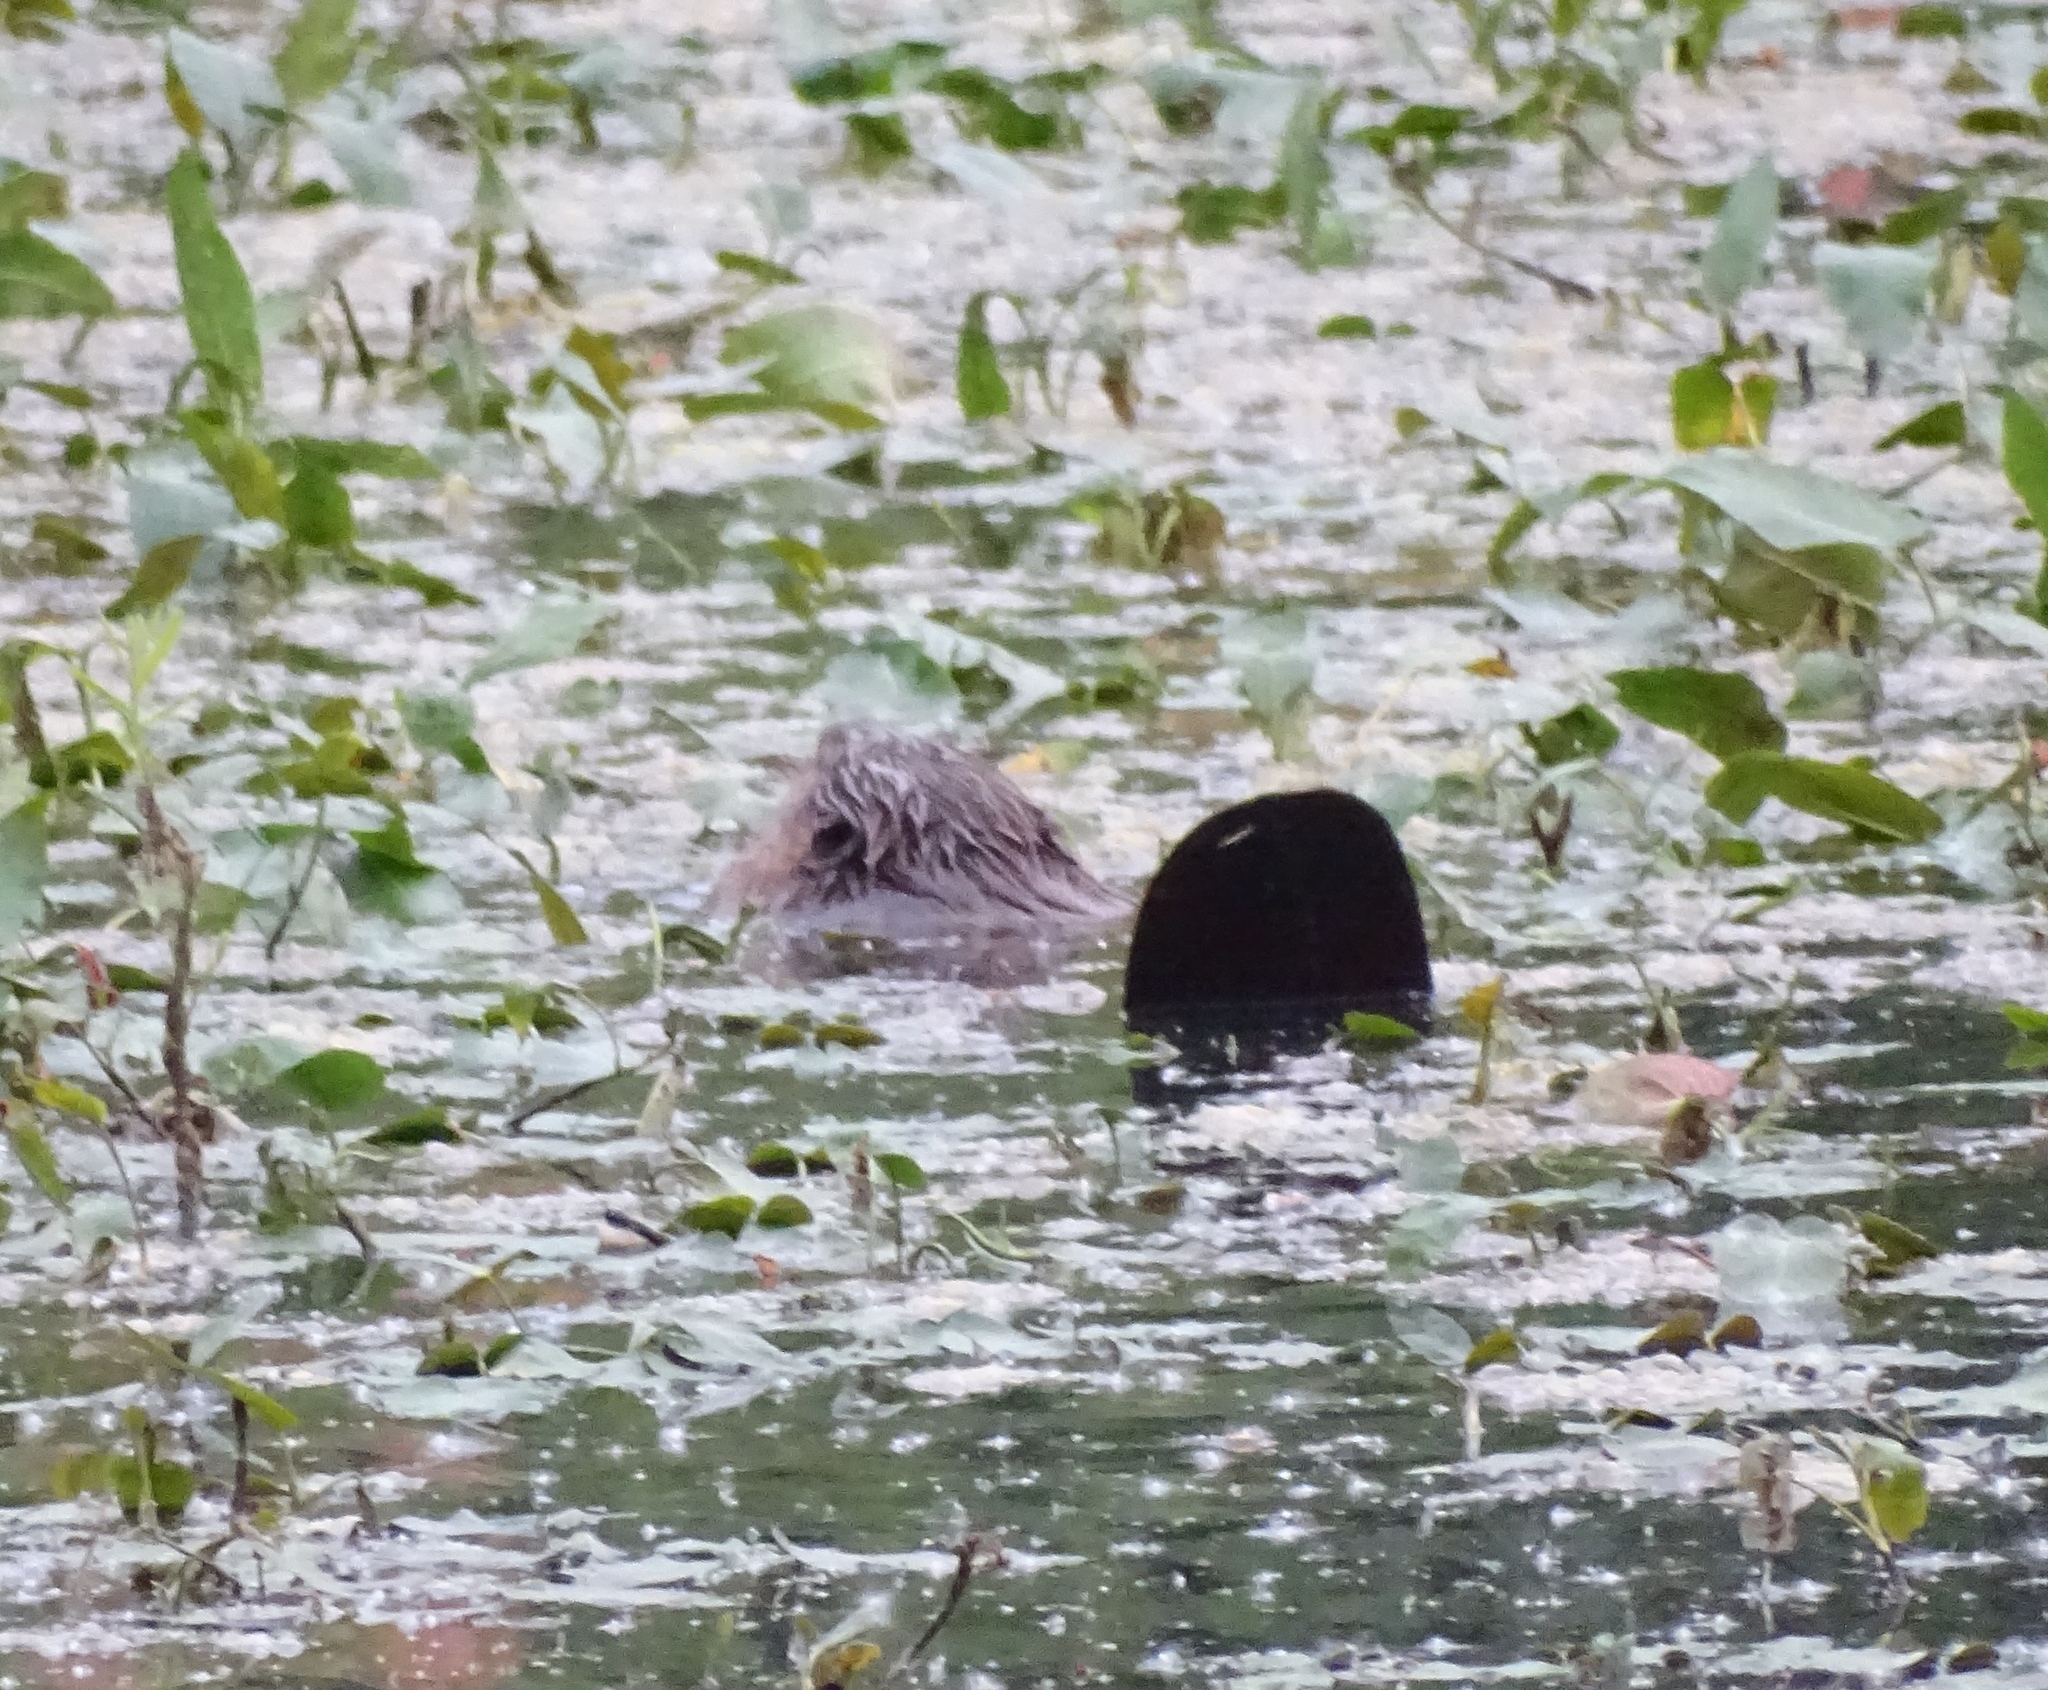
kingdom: Animalia
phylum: Chordata
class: Mammalia
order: Rodentia
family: Castoridae
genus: Castor
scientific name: Castor canadensis
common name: American beaver
